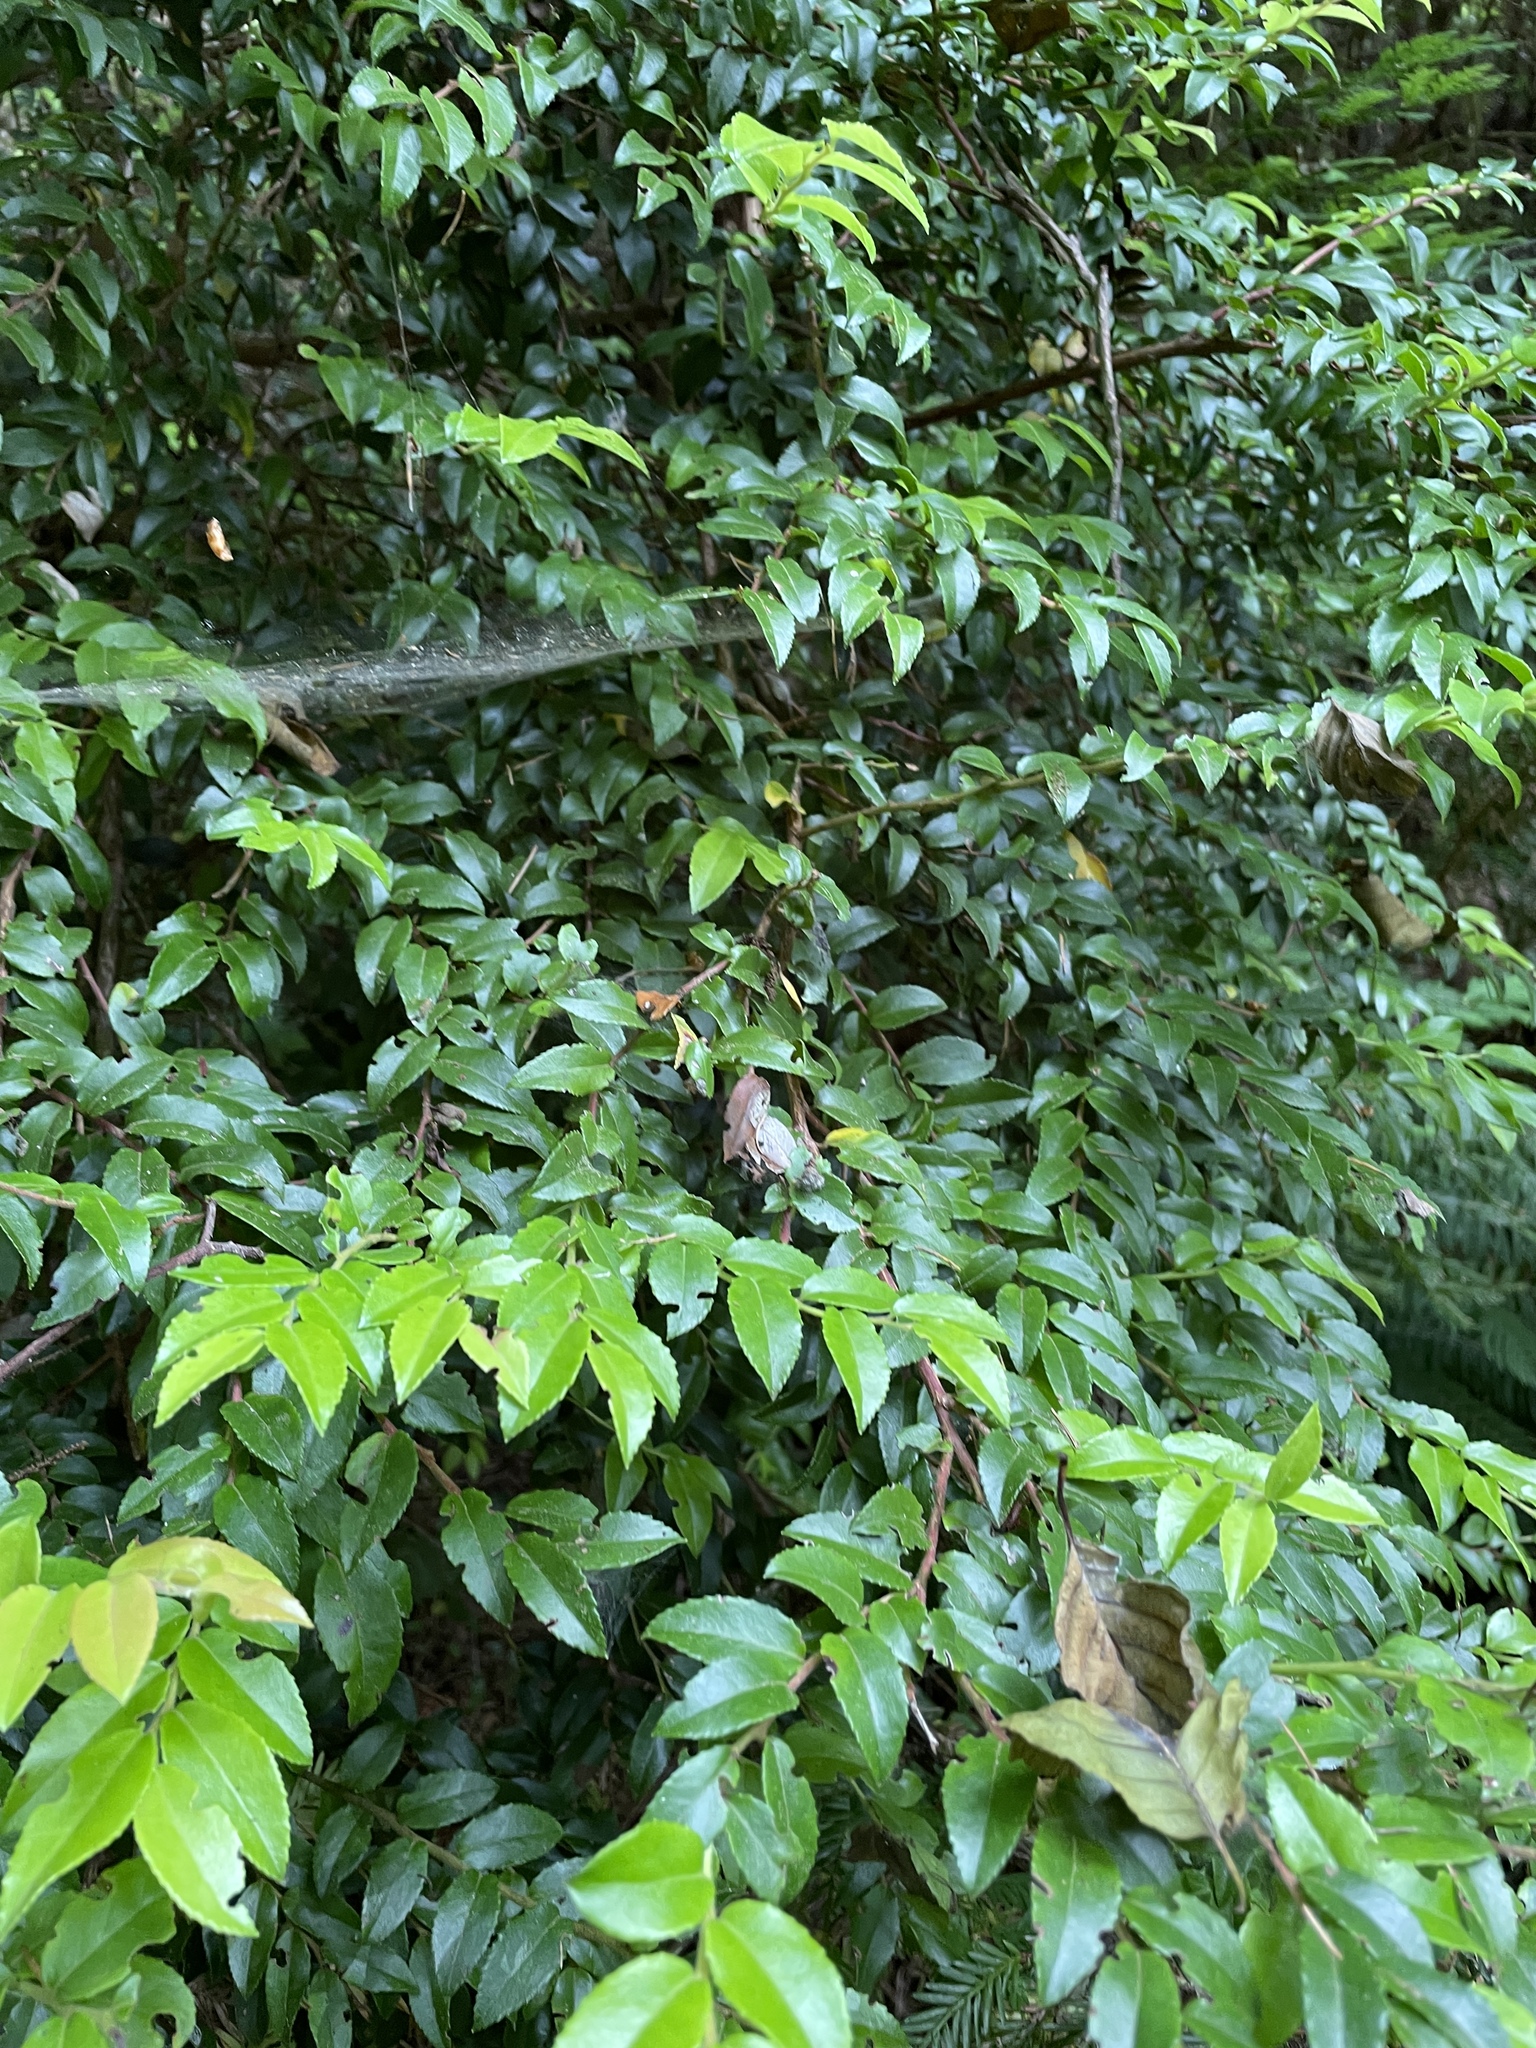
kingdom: Plantae
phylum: Tracheophyta
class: Magnoliopsida
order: Ericales
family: Ericaceae
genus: Vaccinium
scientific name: Vaccinium ovatum
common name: California-huckleberry
